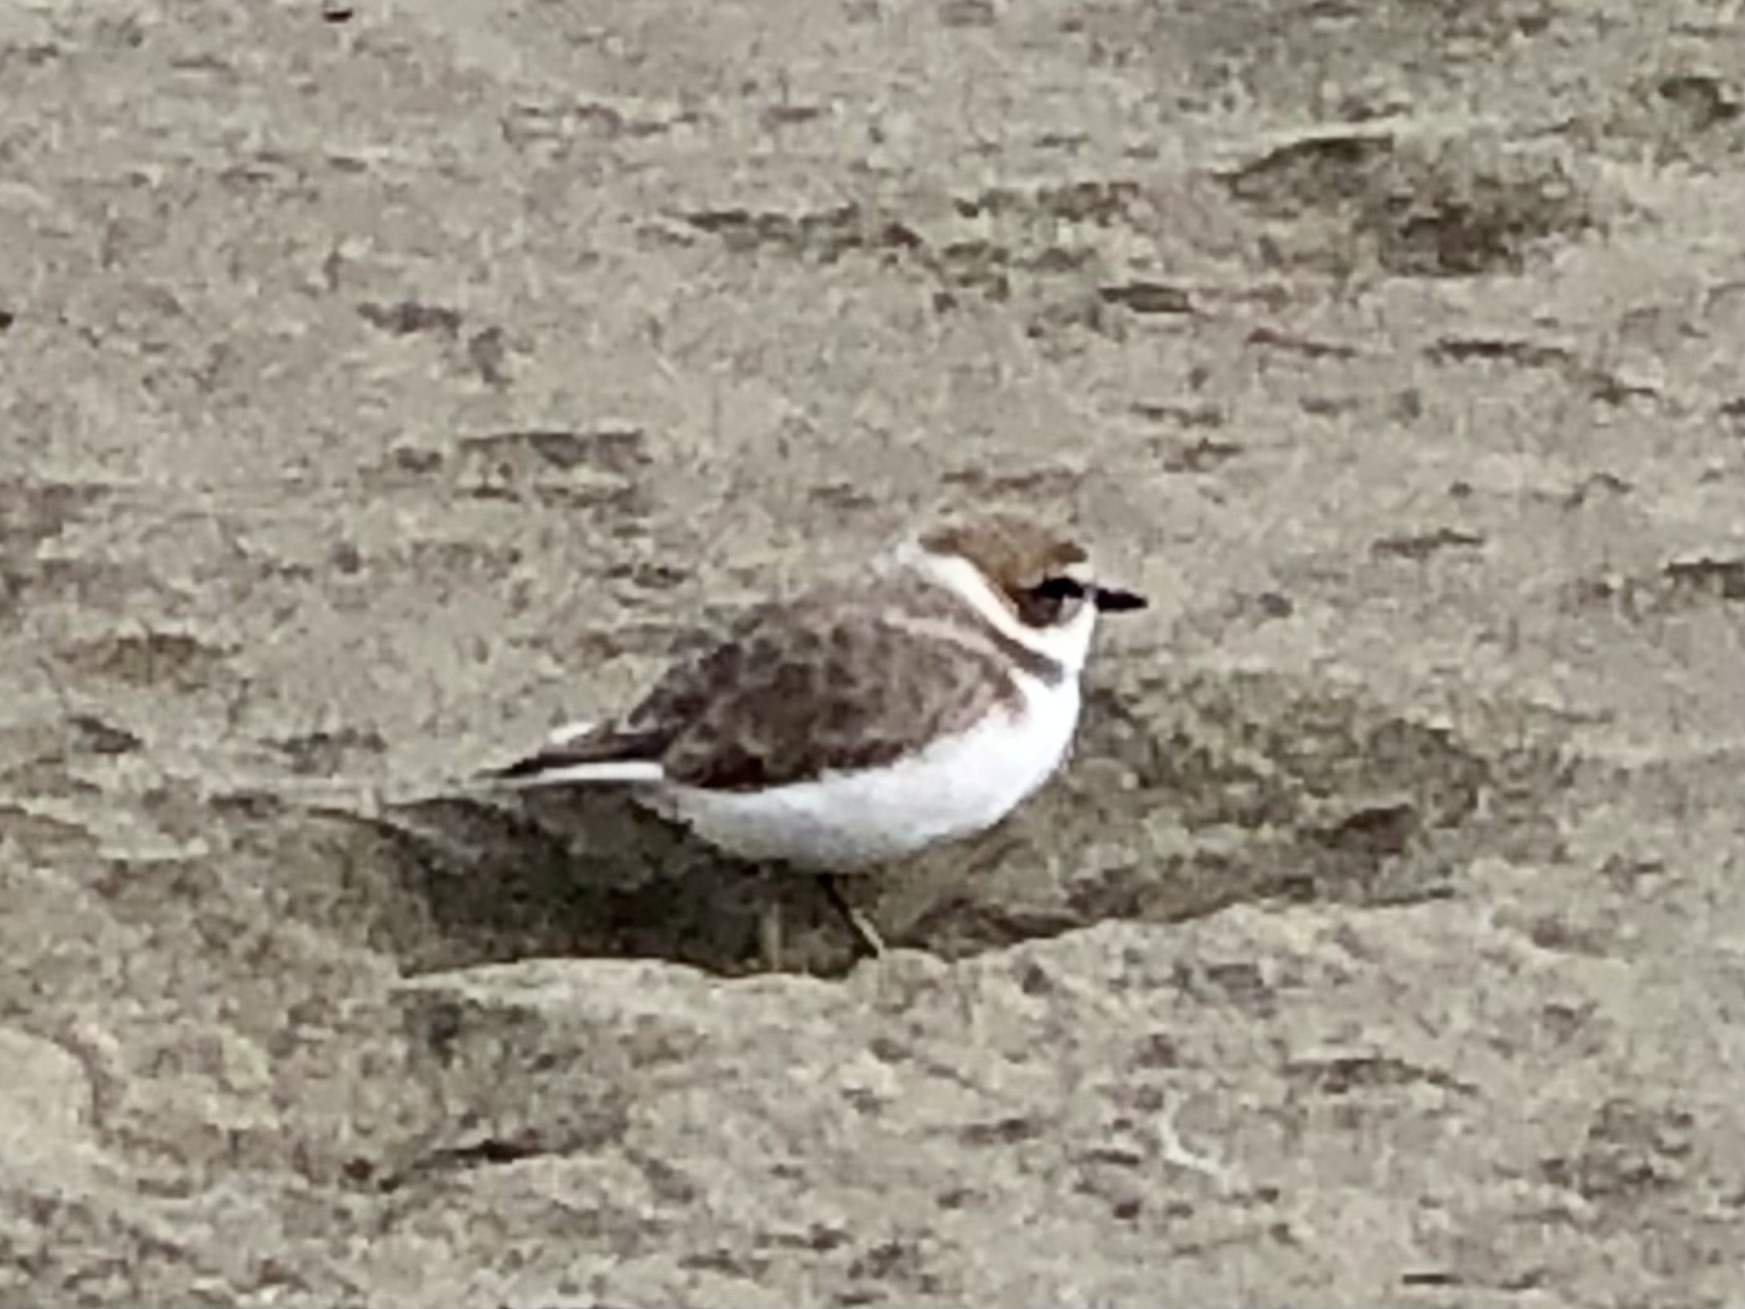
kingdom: Animalia
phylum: Chordata
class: Aves
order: Charadriiformes
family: Charadriidae
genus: Anarhynchus
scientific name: Anarhynchus
